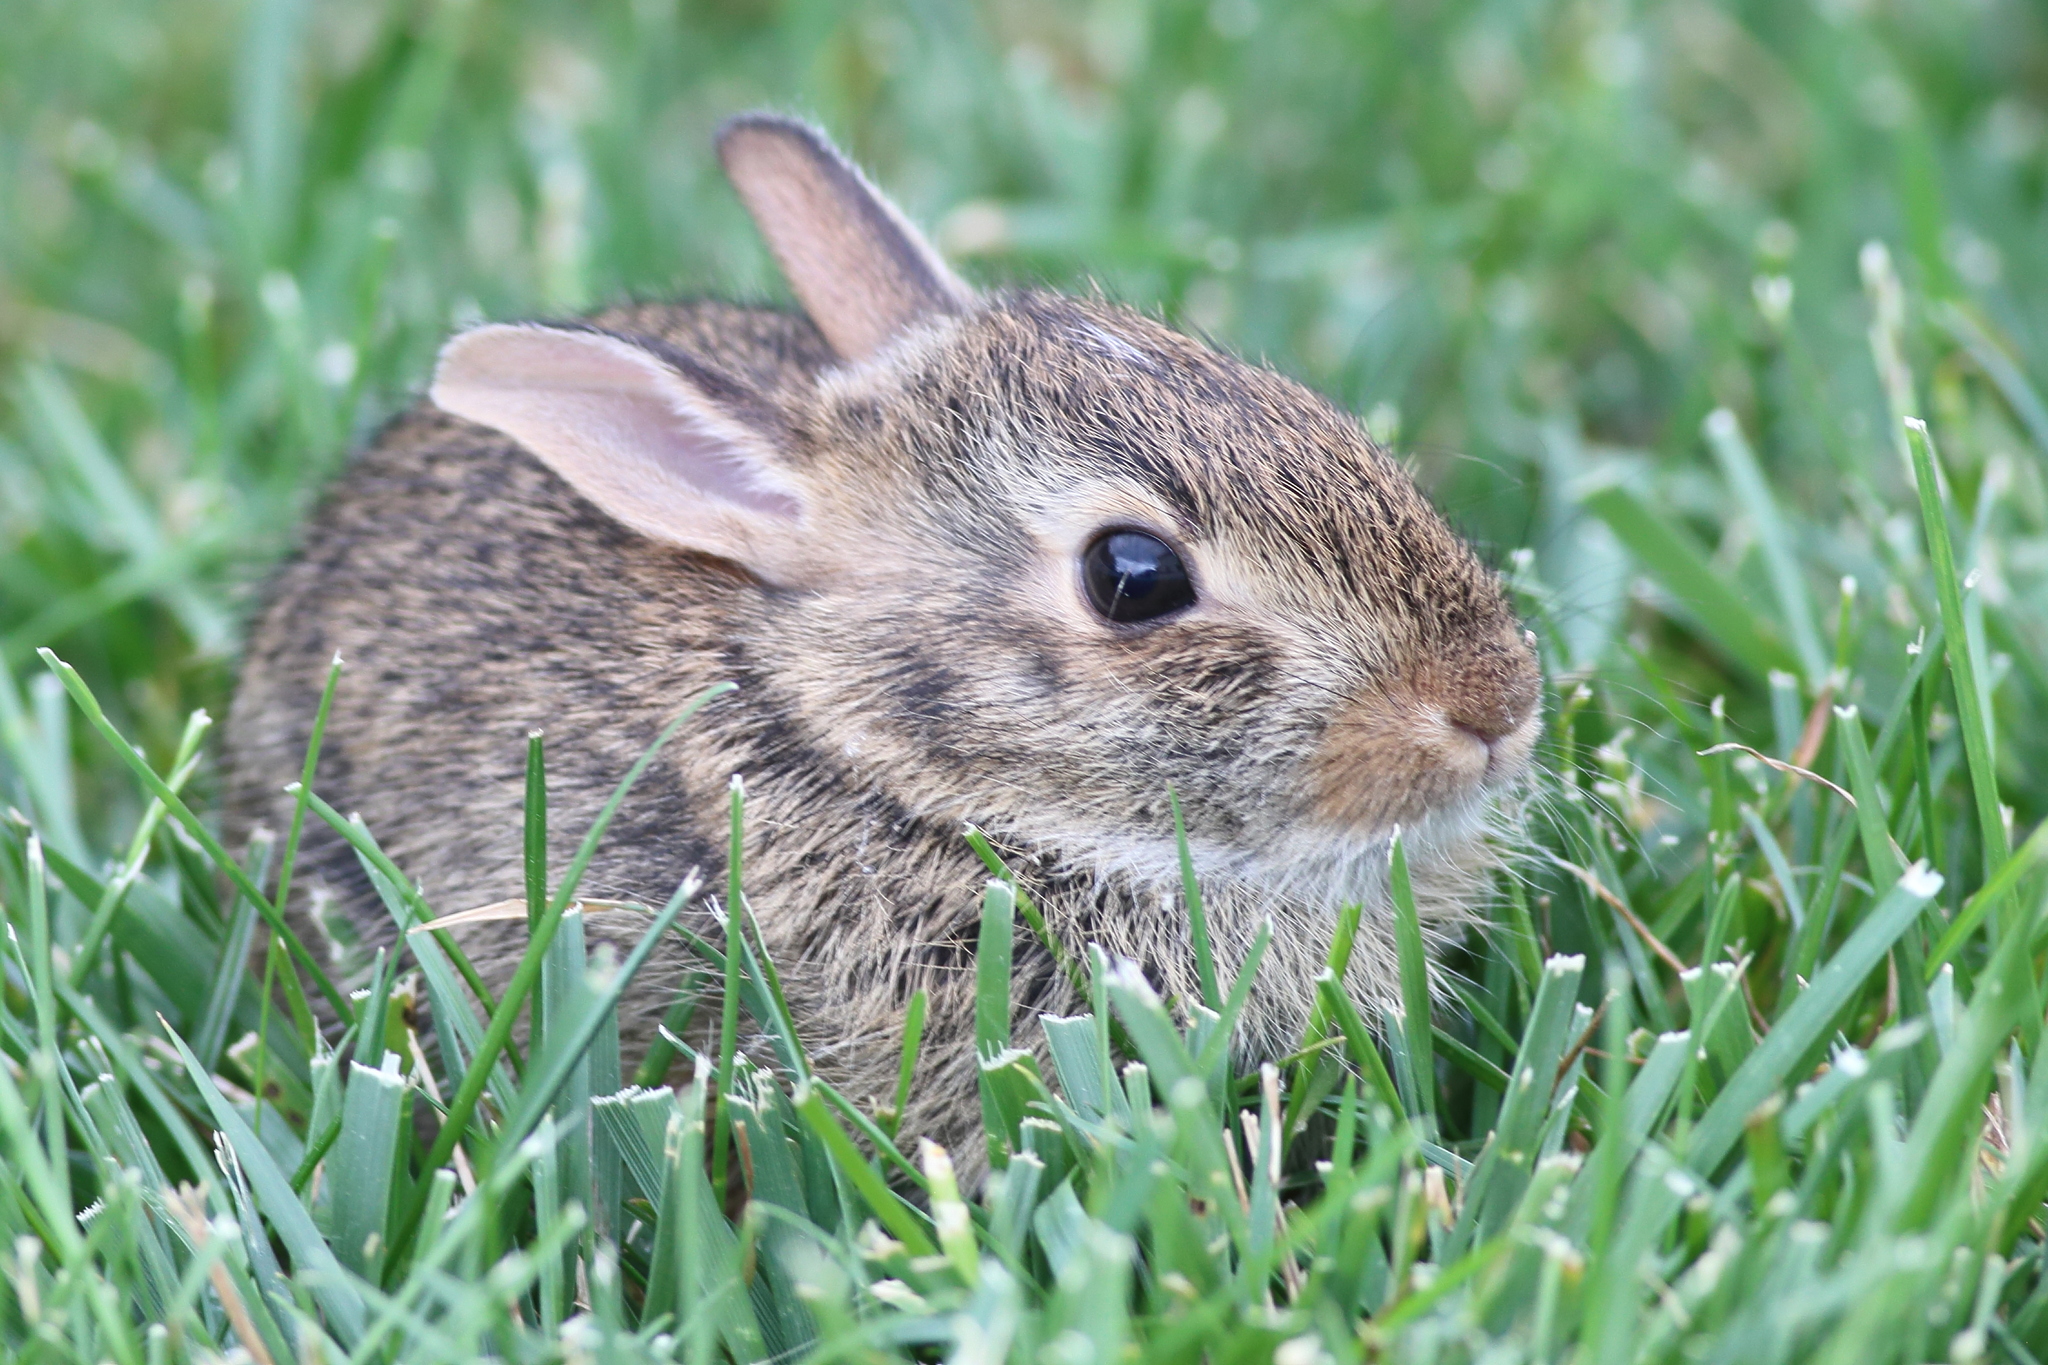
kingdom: Animalia
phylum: Chordata
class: Mammalia
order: Lagomorpha
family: Leporidae
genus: Sylvilagus
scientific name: Sylvilagus floridanus
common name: Eastern cottontail
